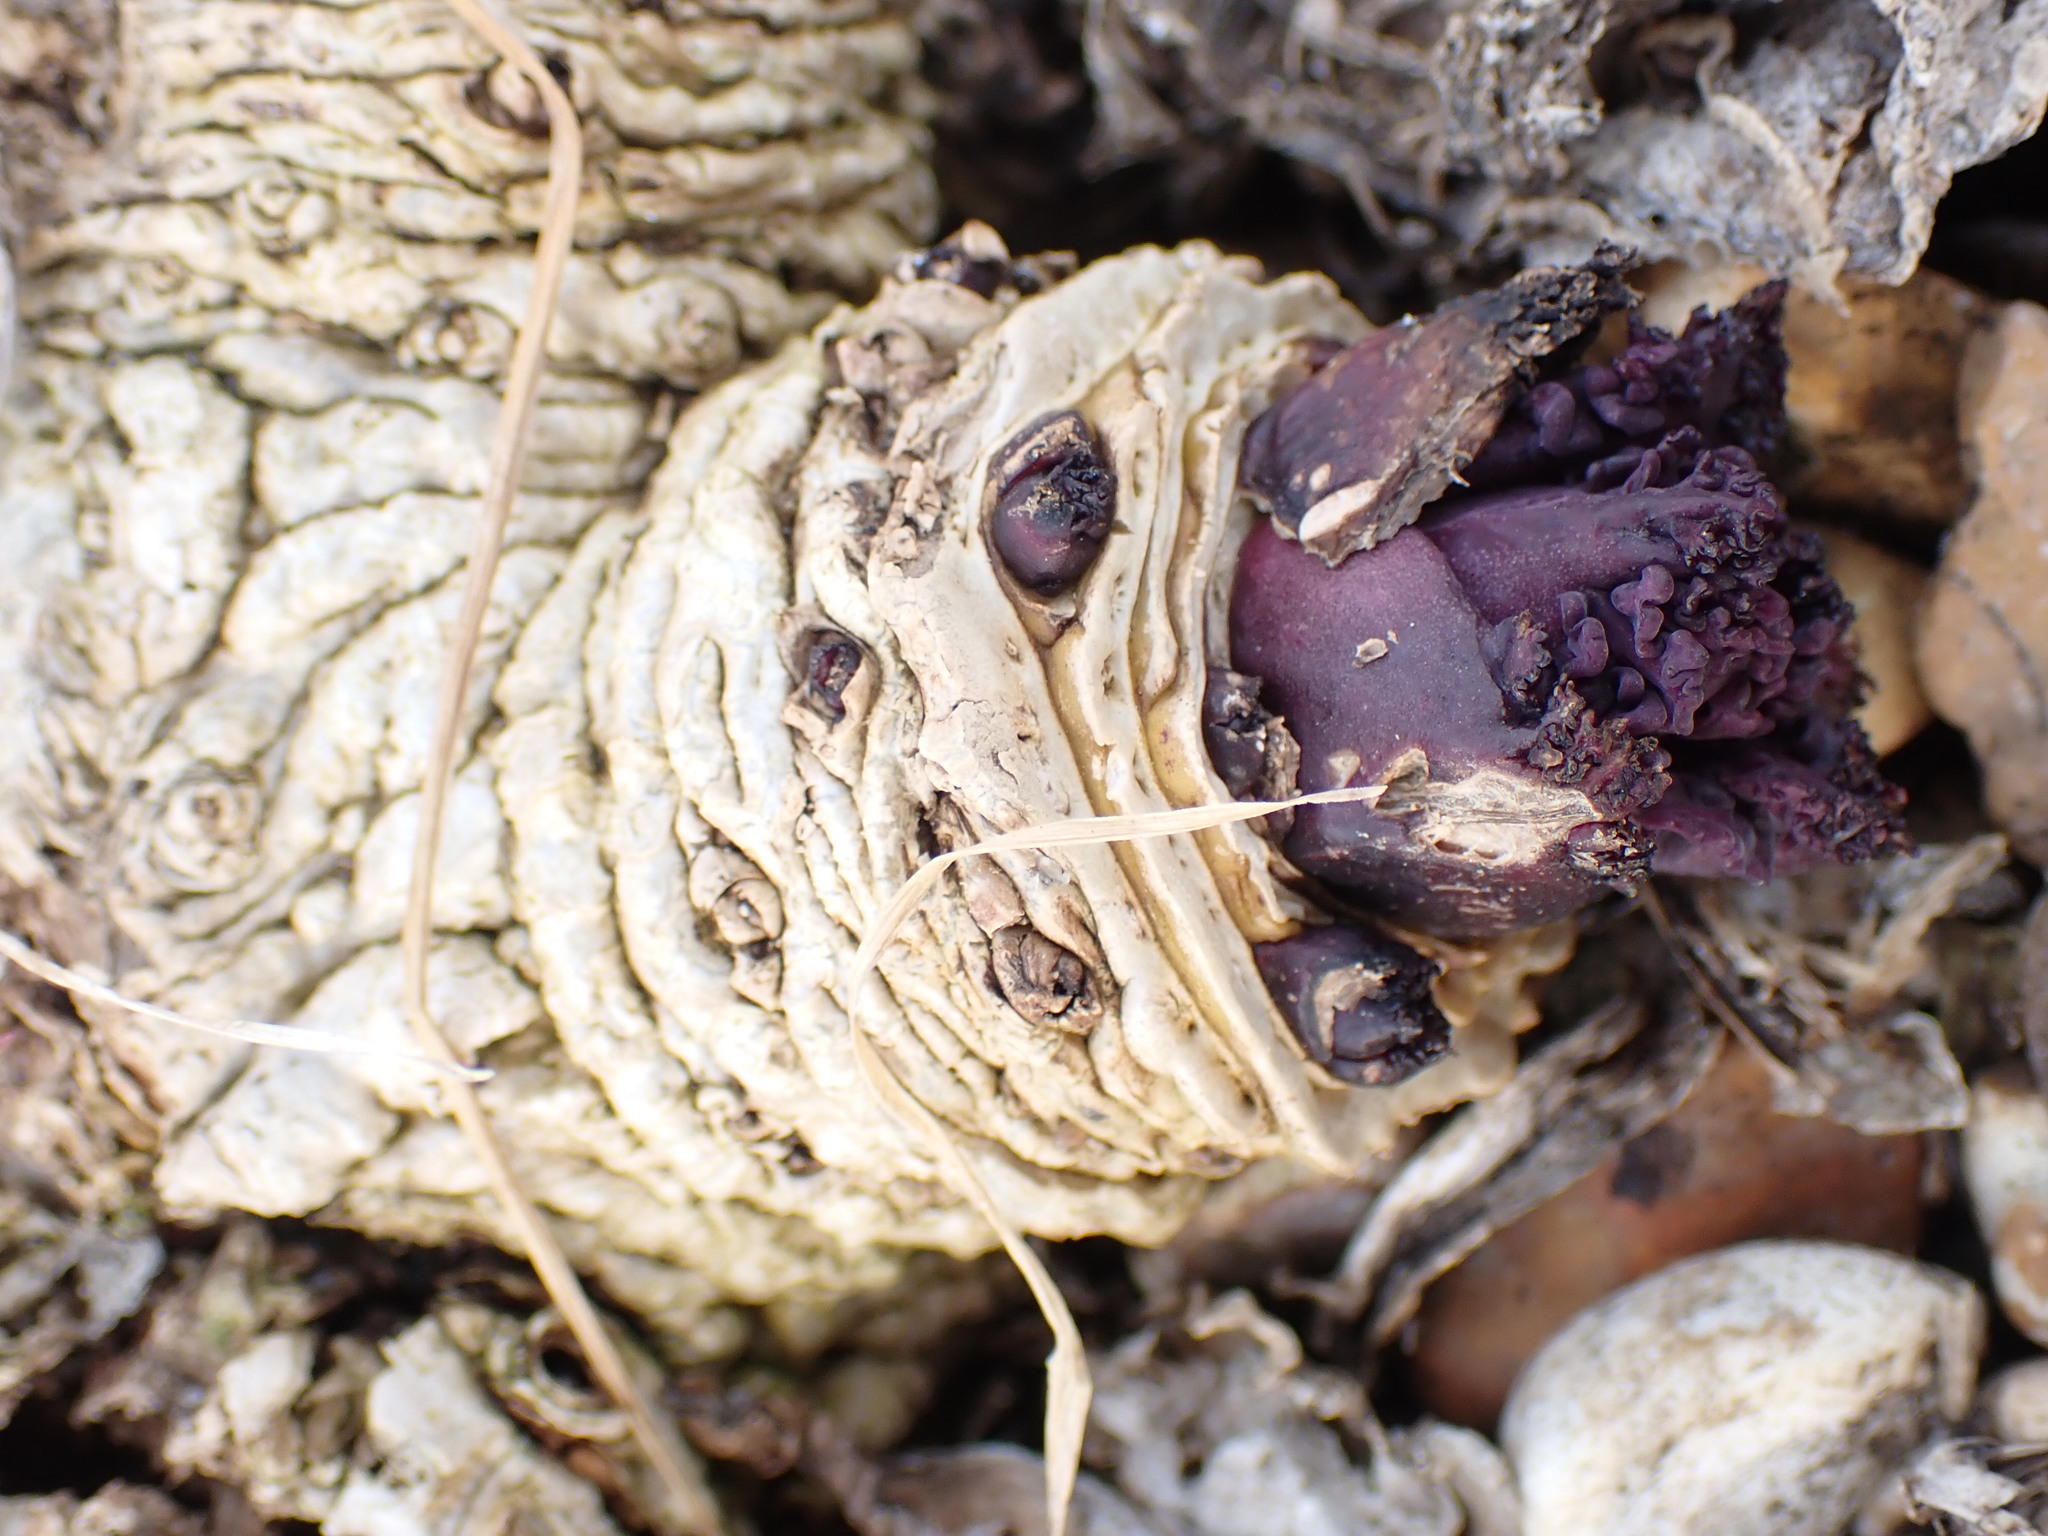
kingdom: Plantae
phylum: Tracheophyta
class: Magnoliopsida
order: Brassicales
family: Brassicaceae
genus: Crambe
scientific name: Crambe maritima
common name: Sea-kale
